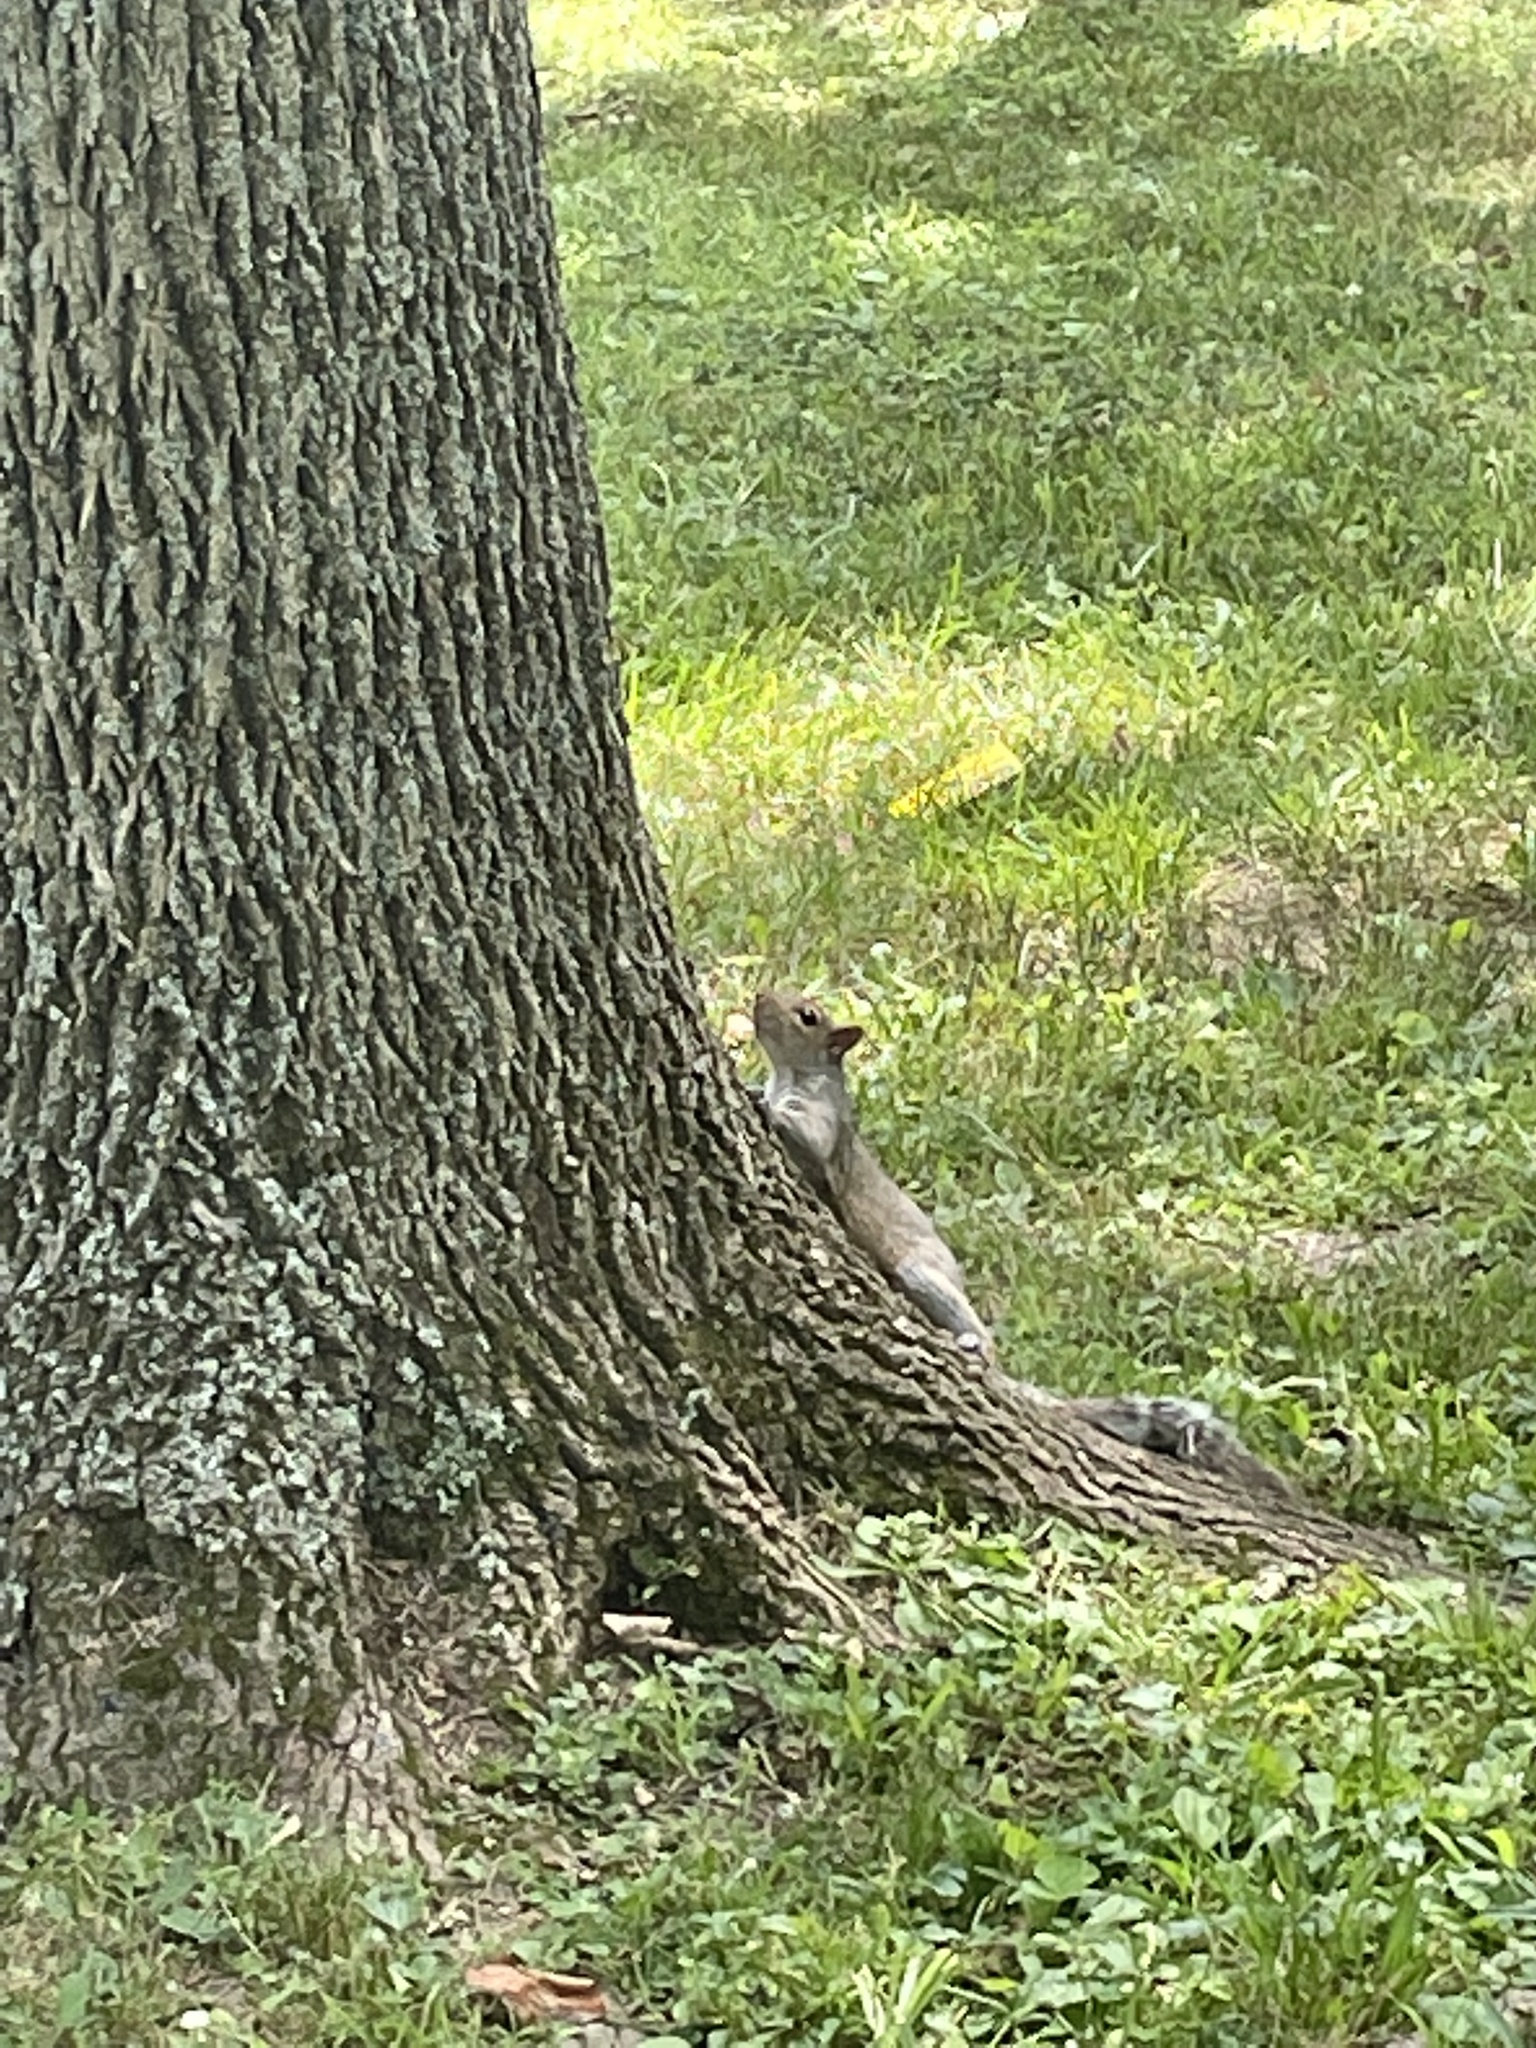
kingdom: Animalia
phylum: Chordata
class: Mammalia
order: Rodentia
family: Sciuridae
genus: Sciurus
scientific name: Sciurus carolinensis
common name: Eastern gray squirrel
